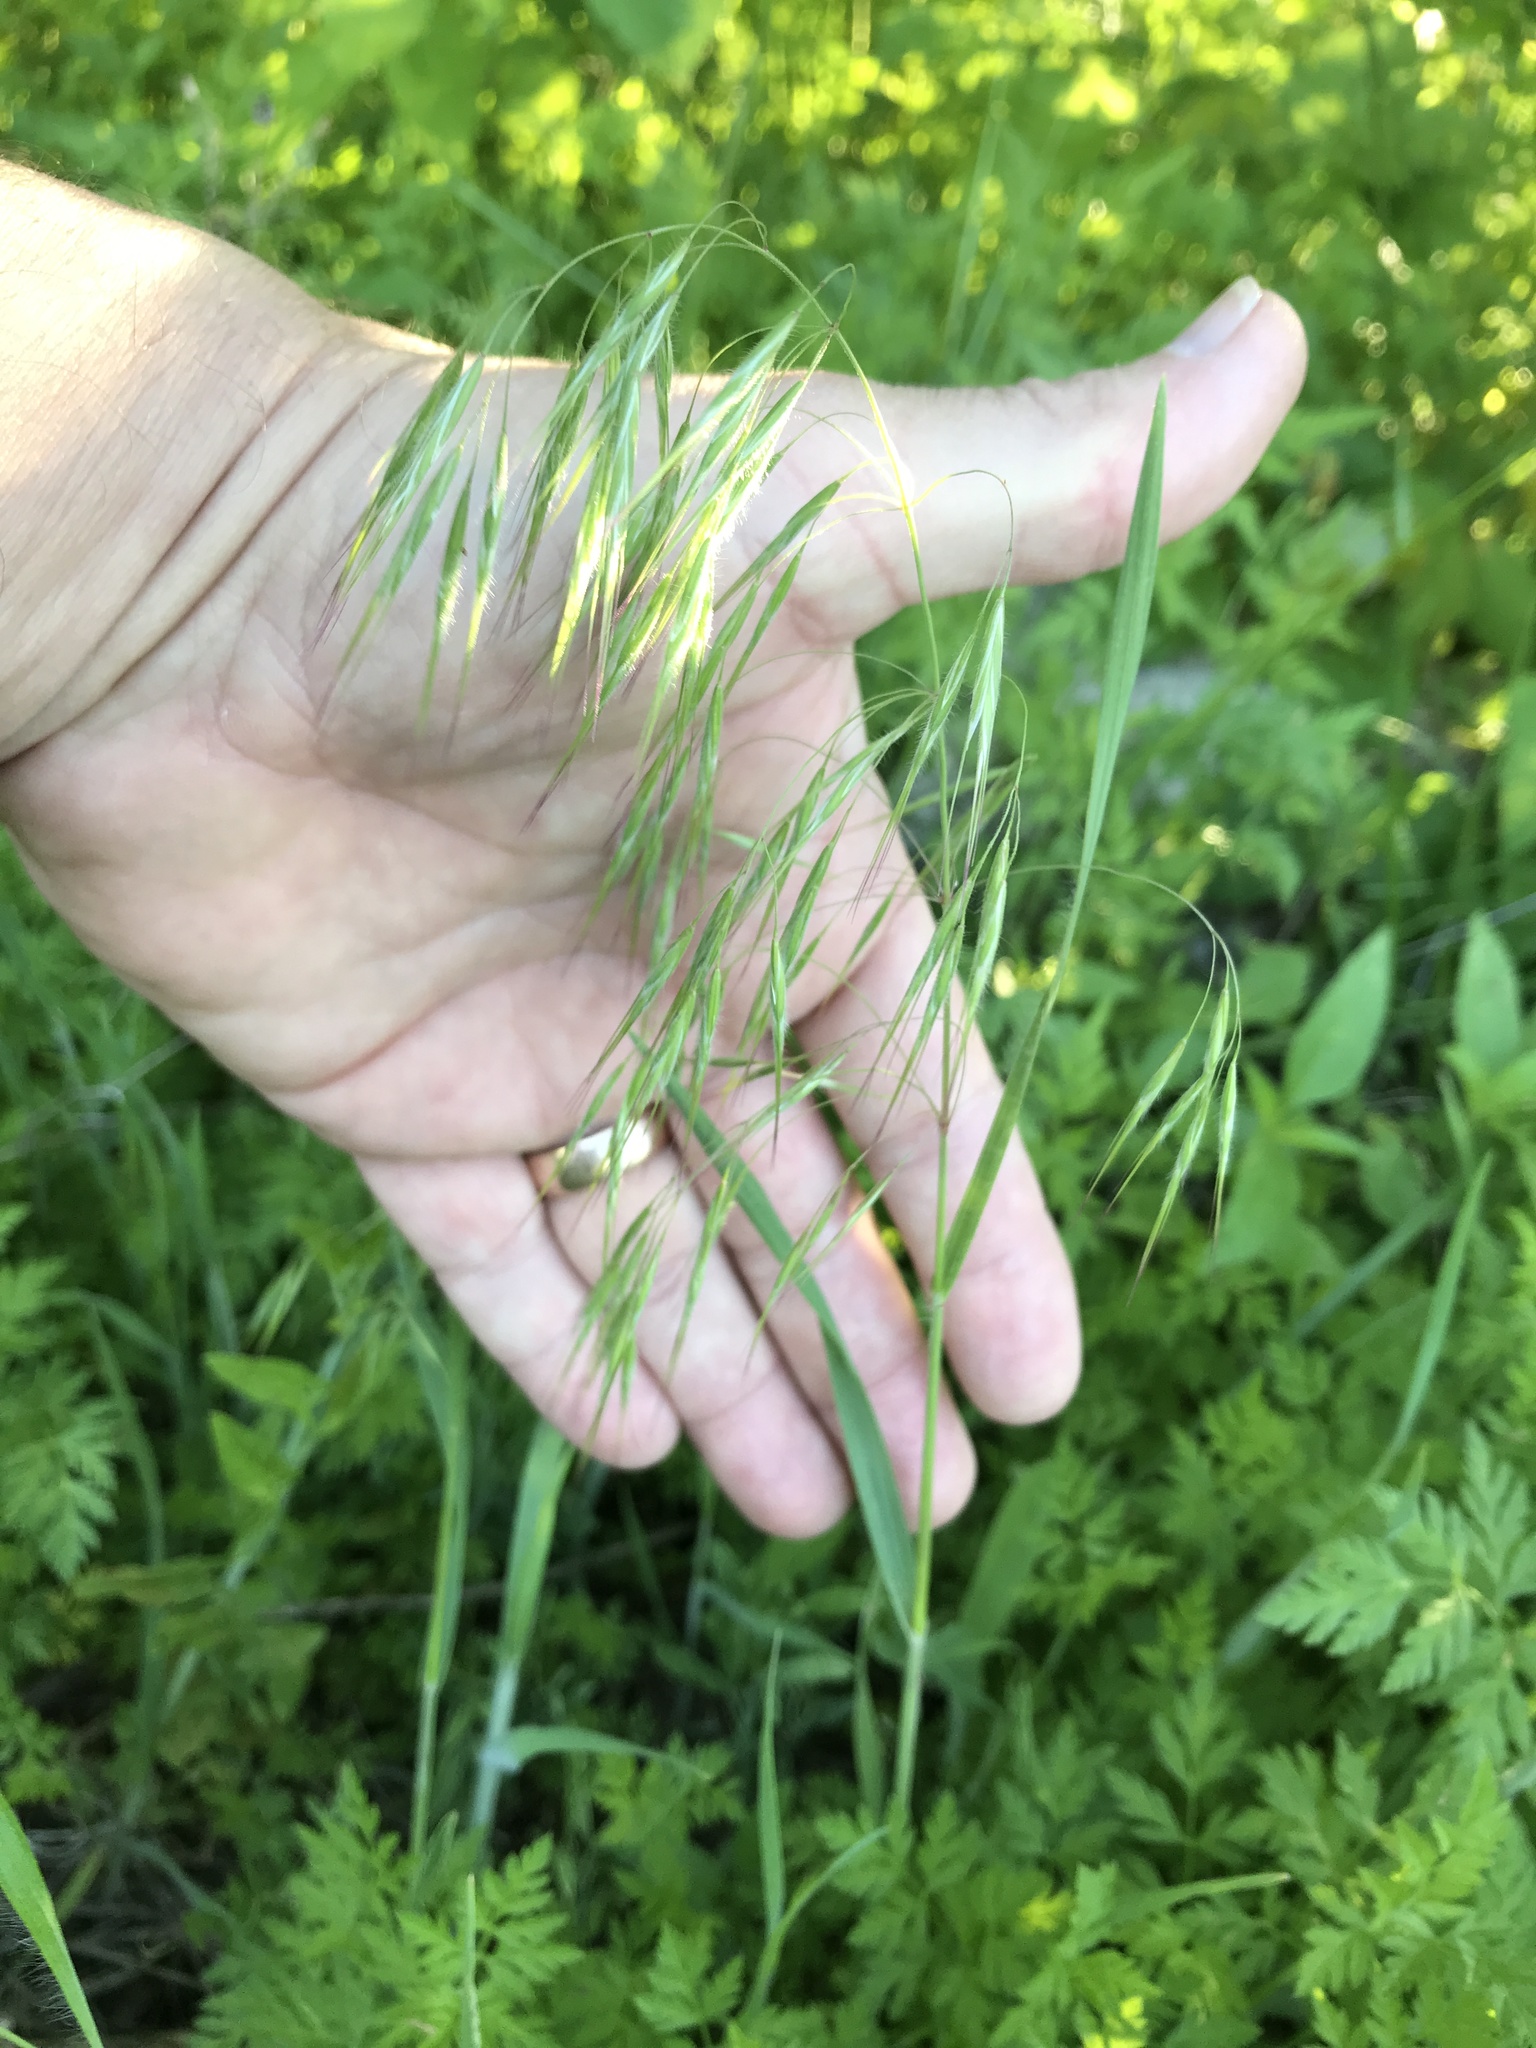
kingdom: Plantae
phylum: Tracheophyta
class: Liliopsida
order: Poales
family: Poaceae
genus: Bromus
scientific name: Bromus tectorum
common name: Cheatgrass
